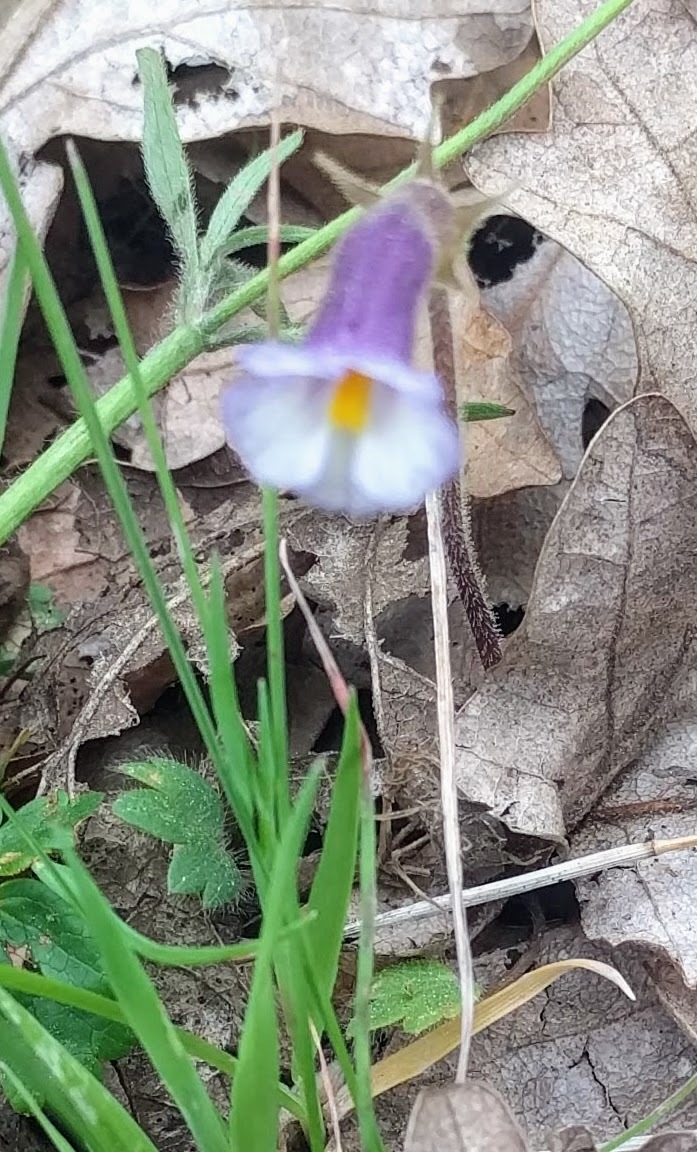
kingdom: Plantae
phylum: Tracheophyta
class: Magnoliopsida
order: Lamiales
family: Orobanchaceae
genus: Aphyllon
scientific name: Aphyllon uniflorum
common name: One-flowered broomrape
